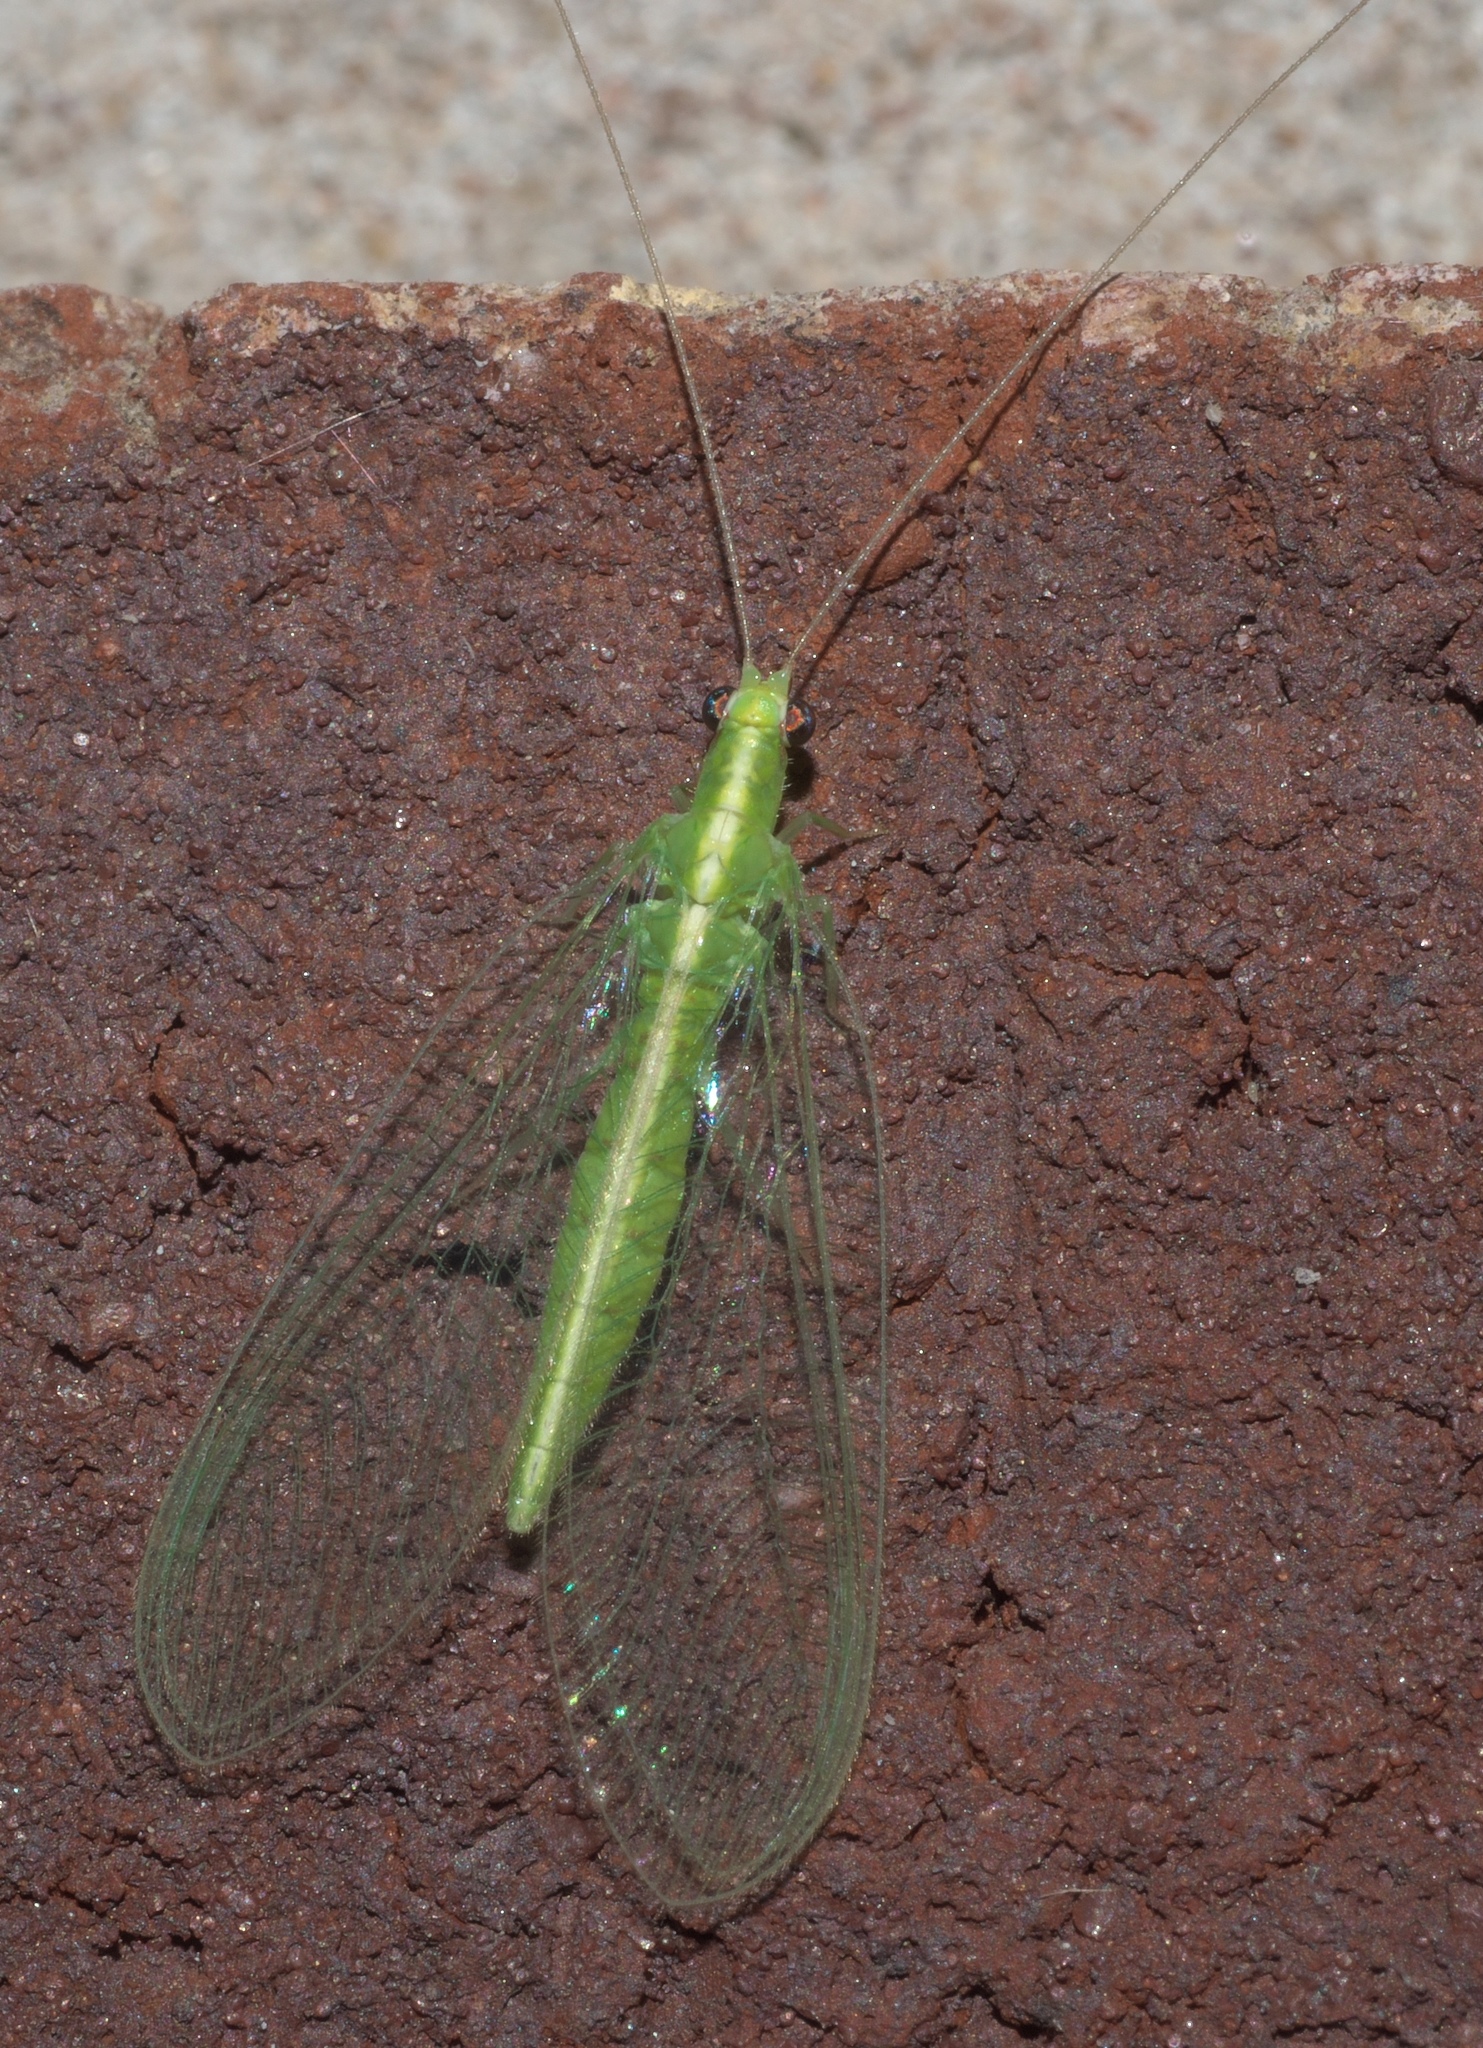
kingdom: Animalia
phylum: Arthropoda
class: Insecta
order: Neuroptera
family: Chrysopidae
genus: Chrysoperla
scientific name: Chrysoperla rufilabris
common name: Red-lipped green lacewing
